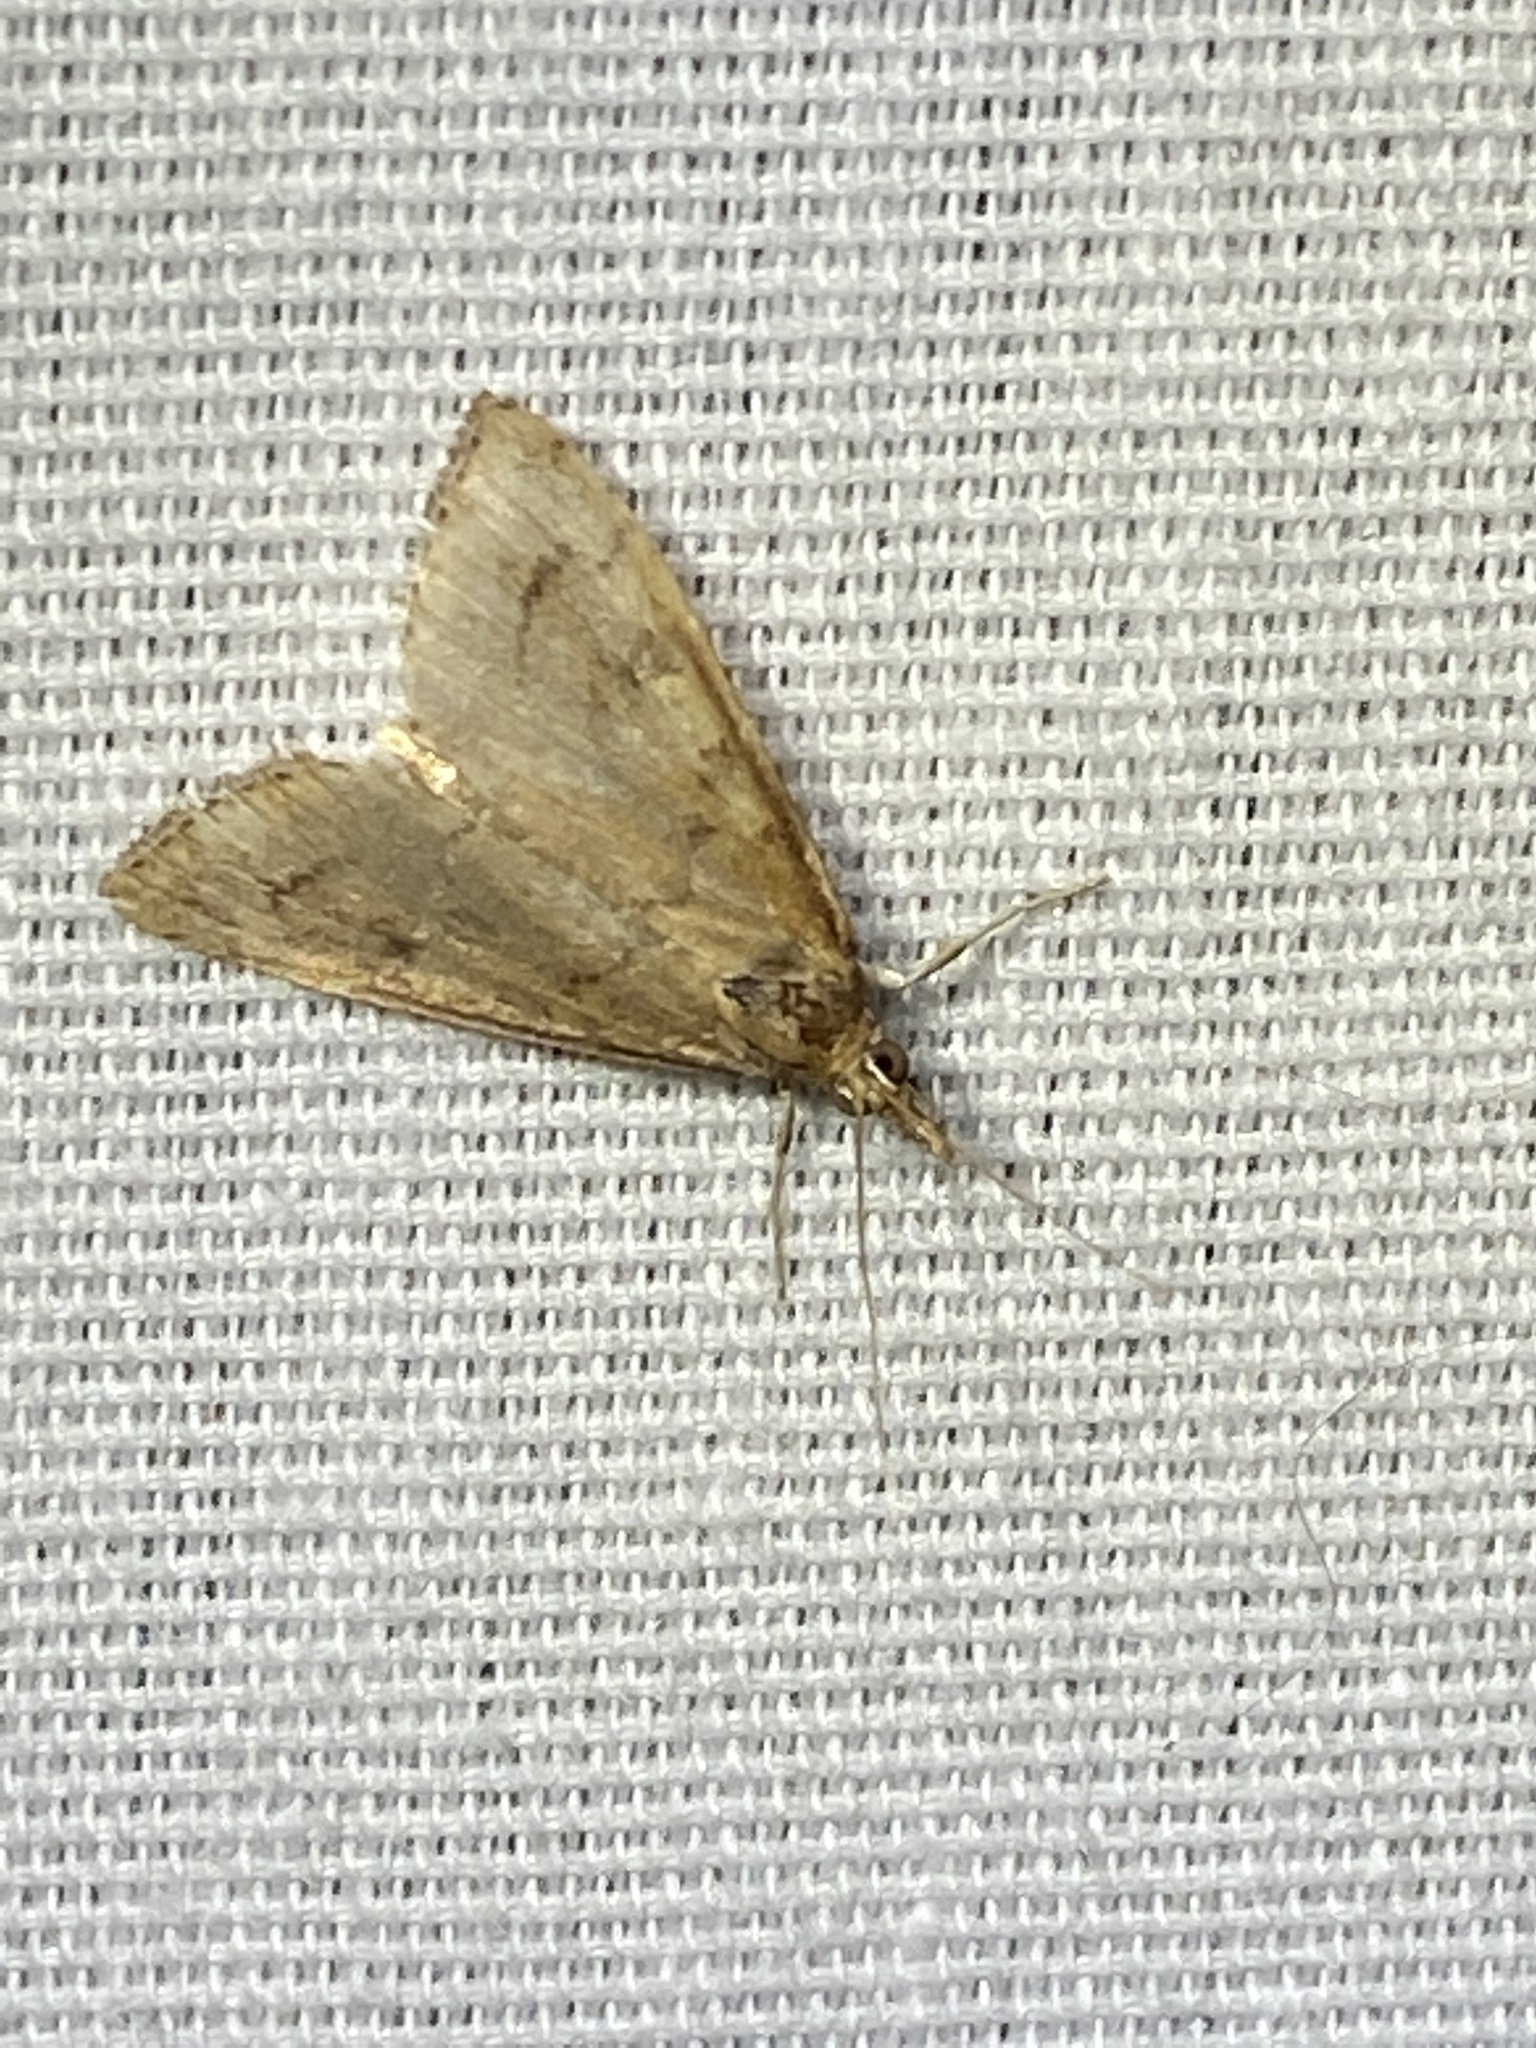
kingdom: Animalia
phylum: Arthropoda
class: Insecta
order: Lepidoptera
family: Crambidae
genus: Udea
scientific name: Udea rubigalis
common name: Celery leaftier moth
